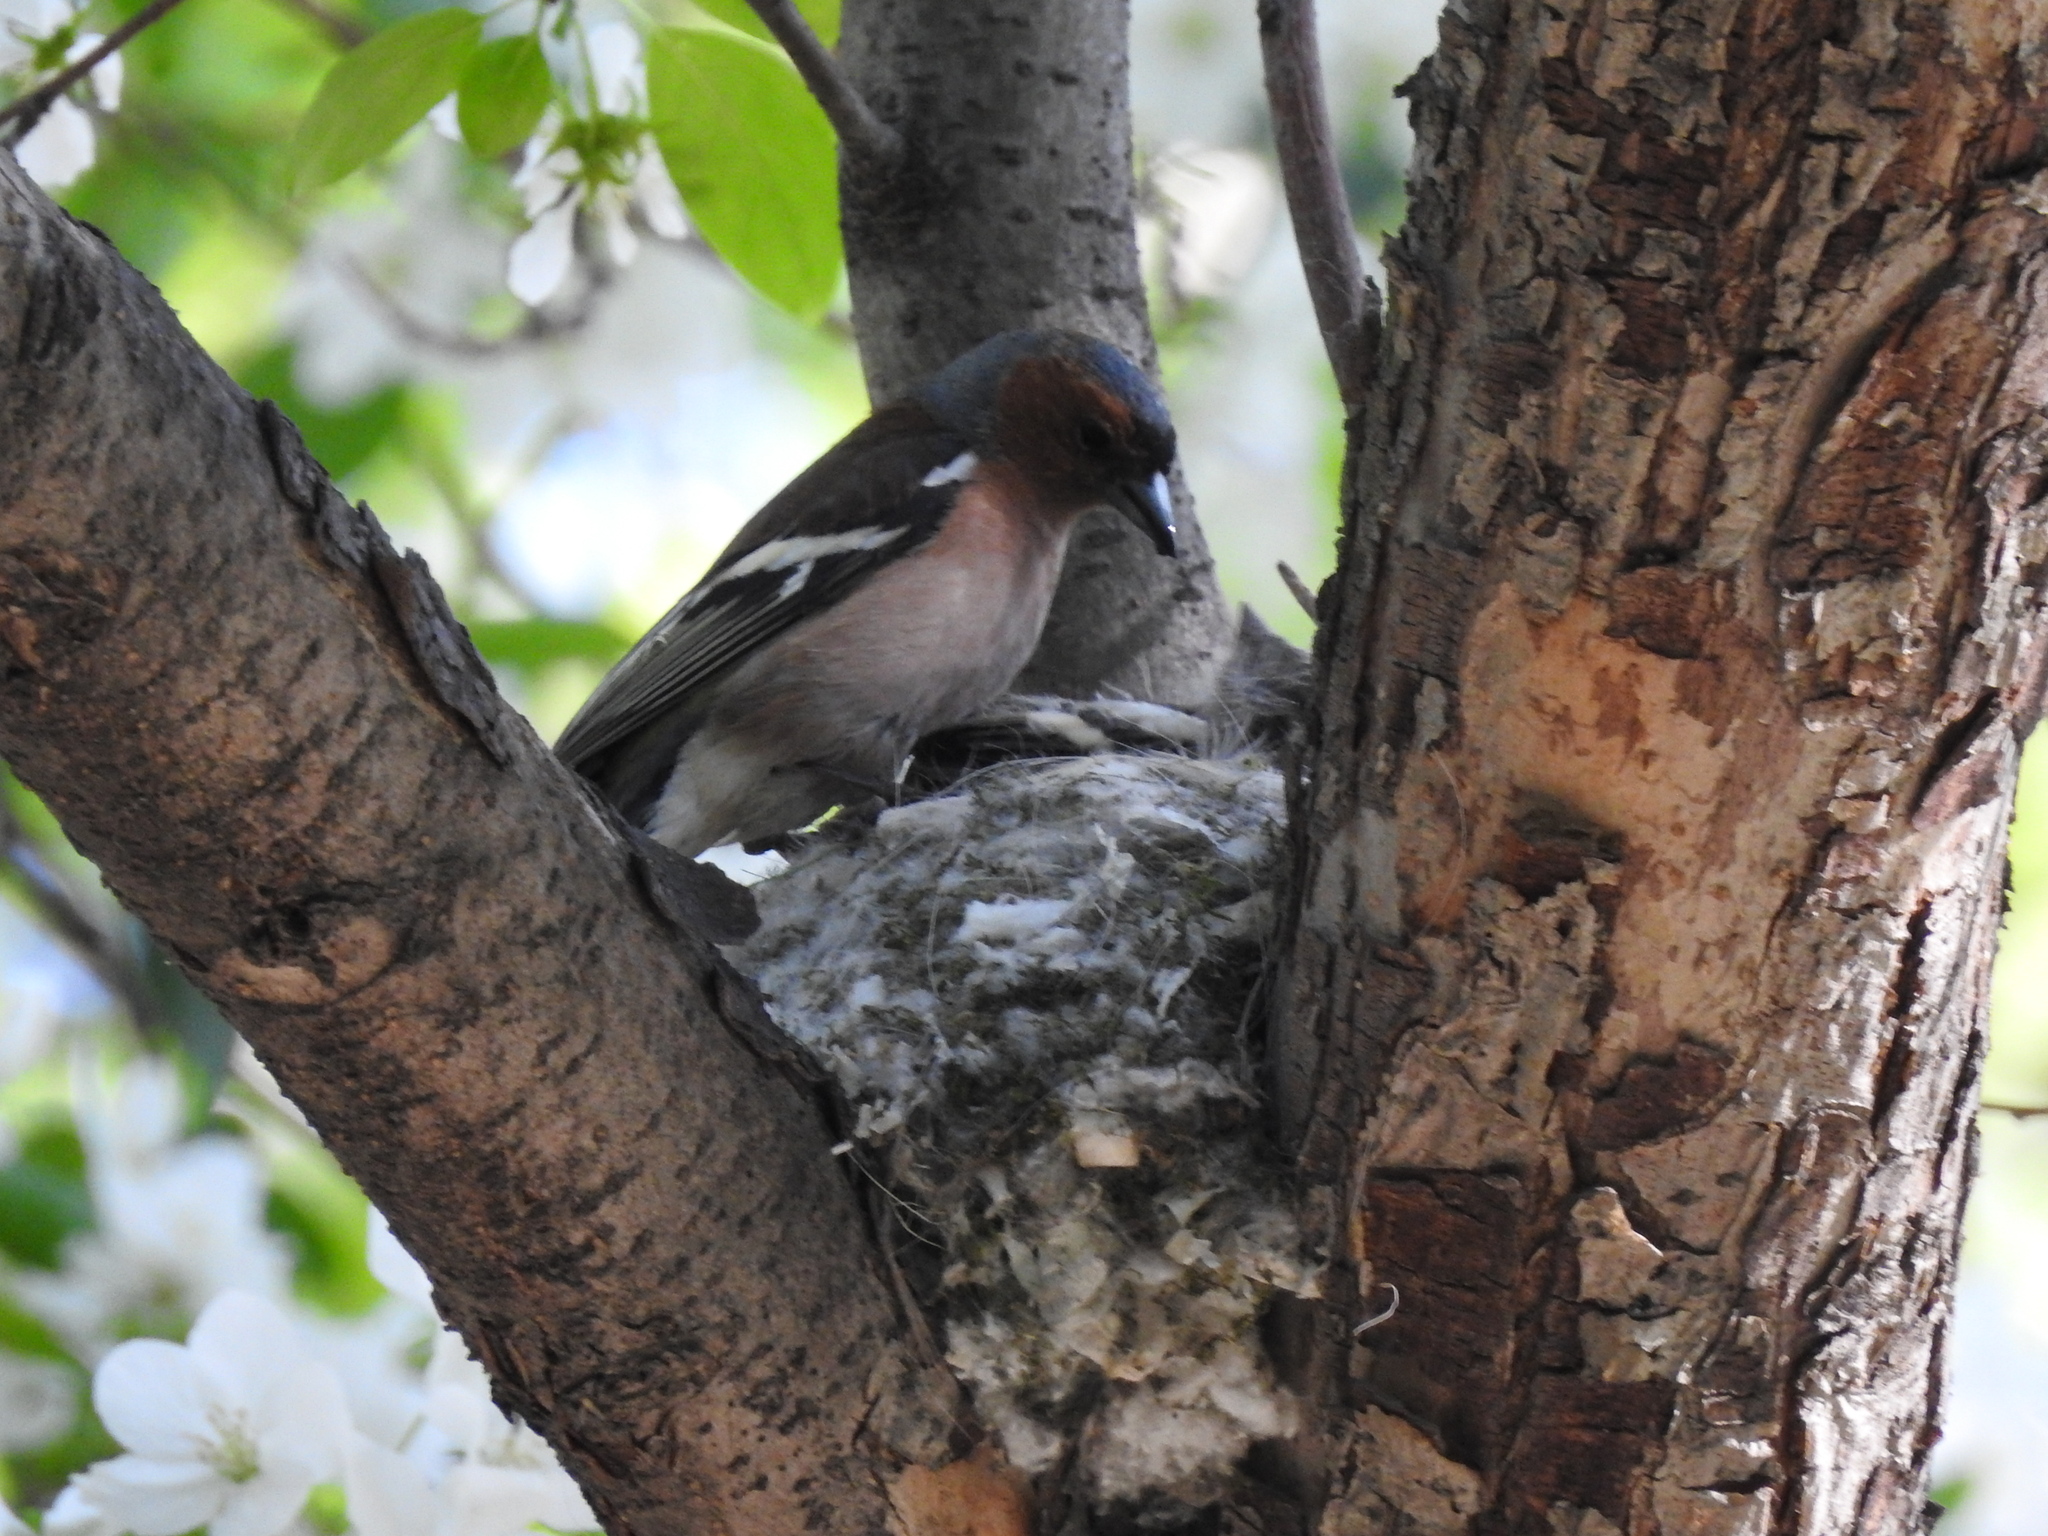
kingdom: Animalia
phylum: Chordata
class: Aves
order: Passeriformes
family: Fringillidae
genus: Fringilla
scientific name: Fringilla coelebs
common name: Common chaffinch
